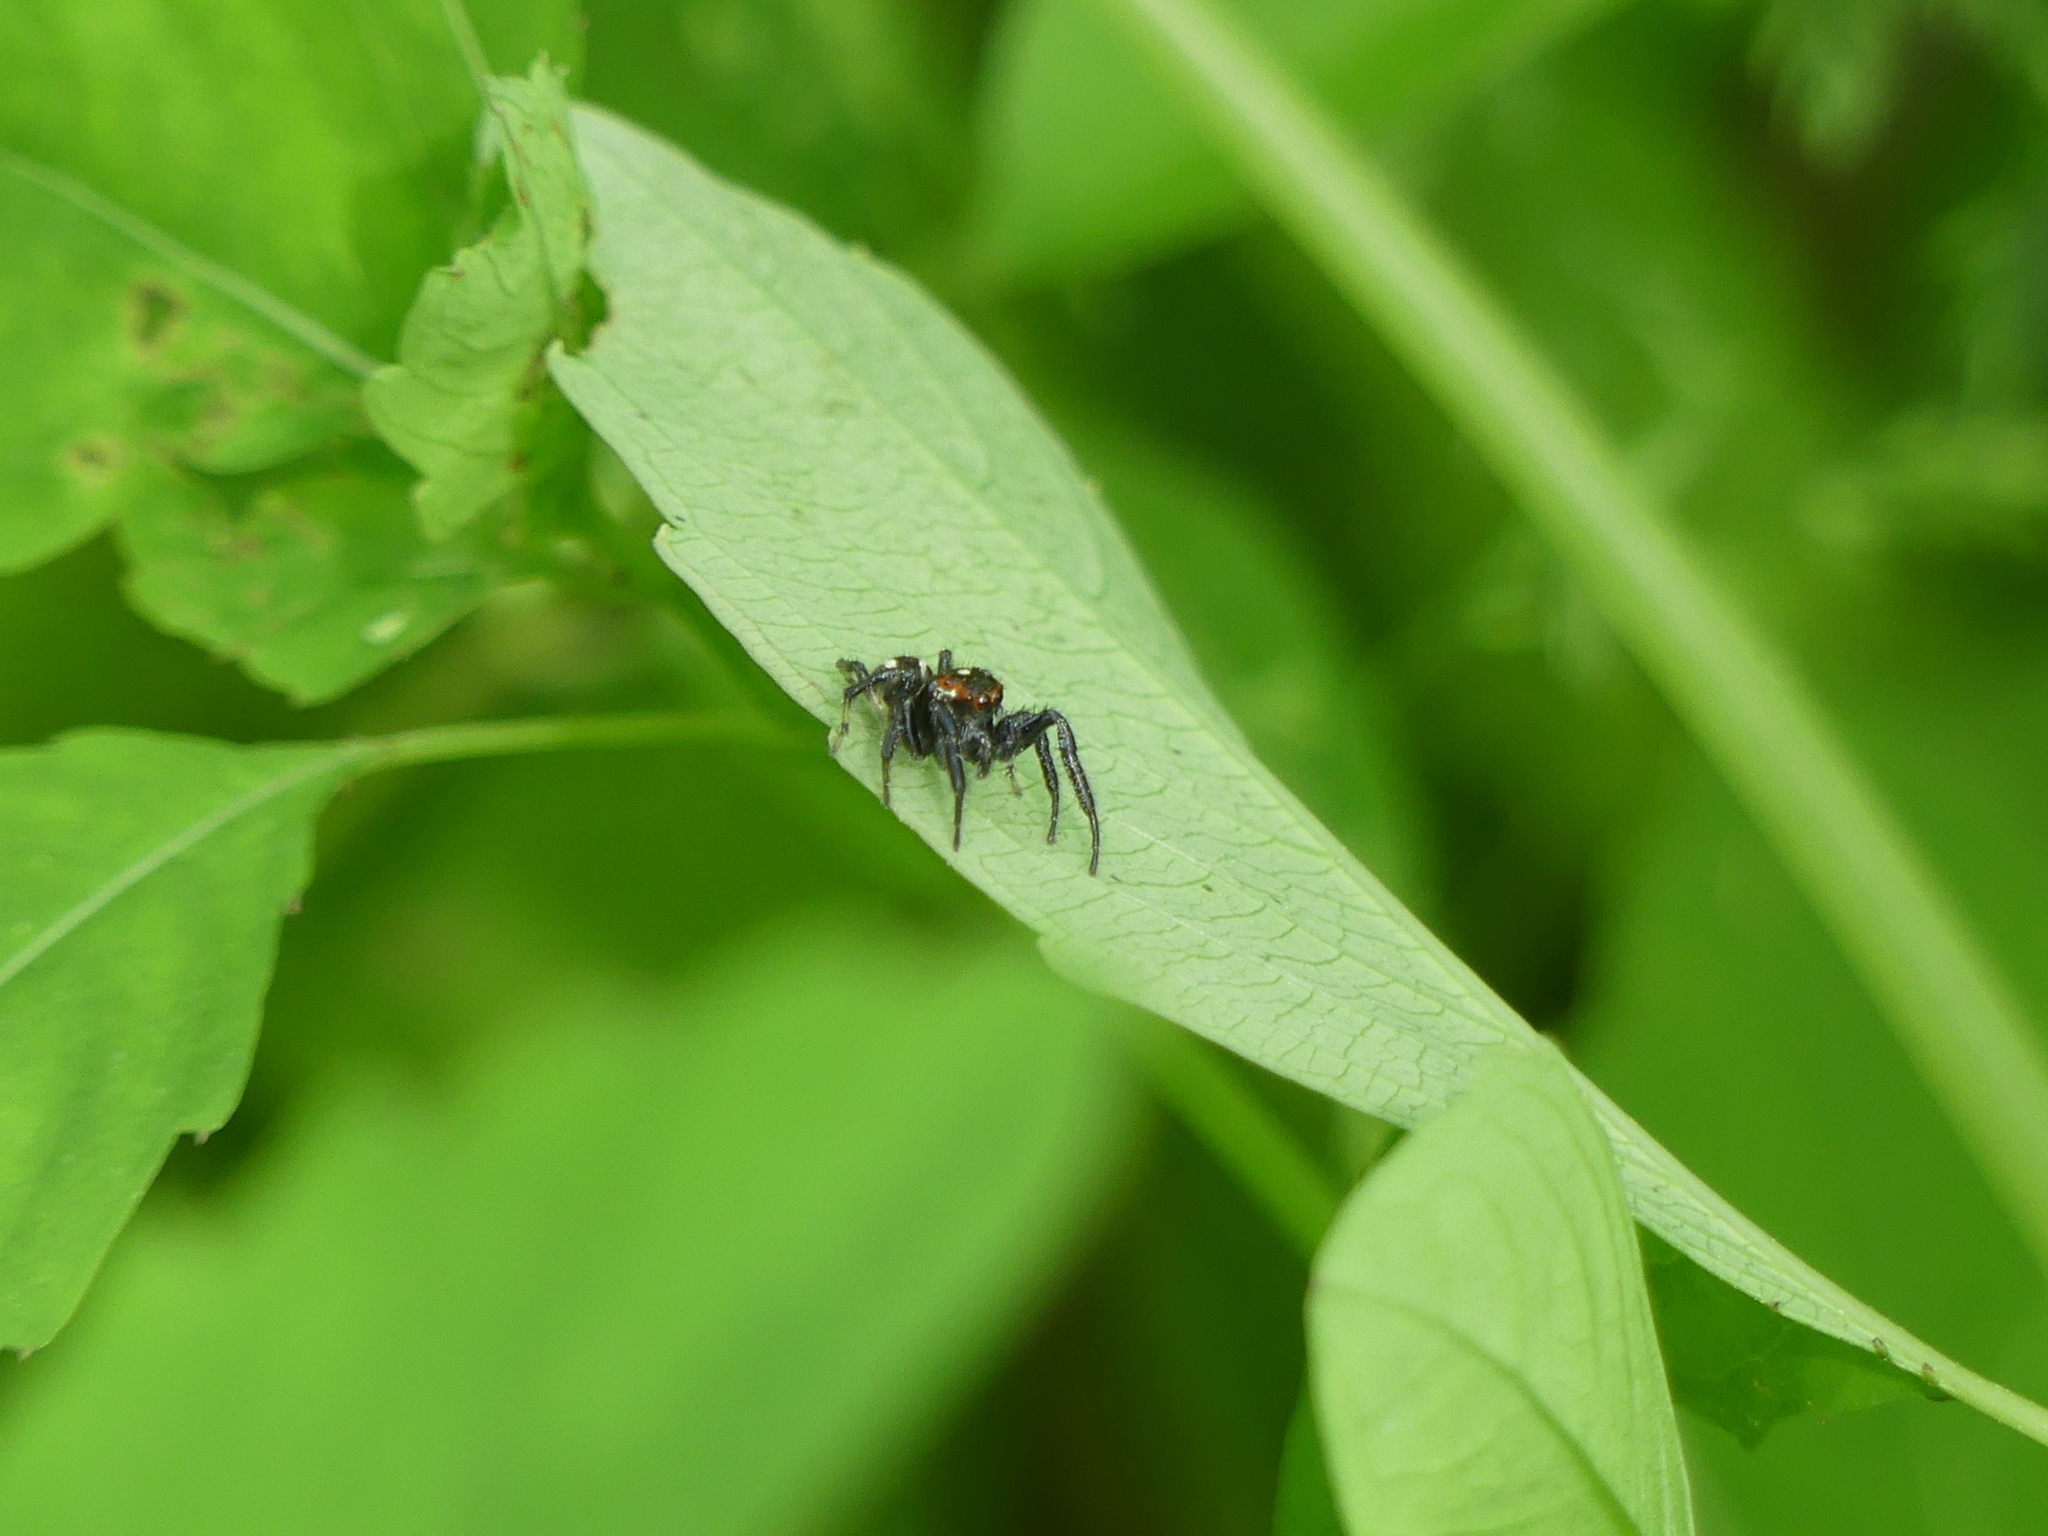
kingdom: Animalia
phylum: Arthropoda
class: Arachnida
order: Araneae
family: Salticidae
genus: Colonus
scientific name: Colonus sylvanus
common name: Jumping spiders
